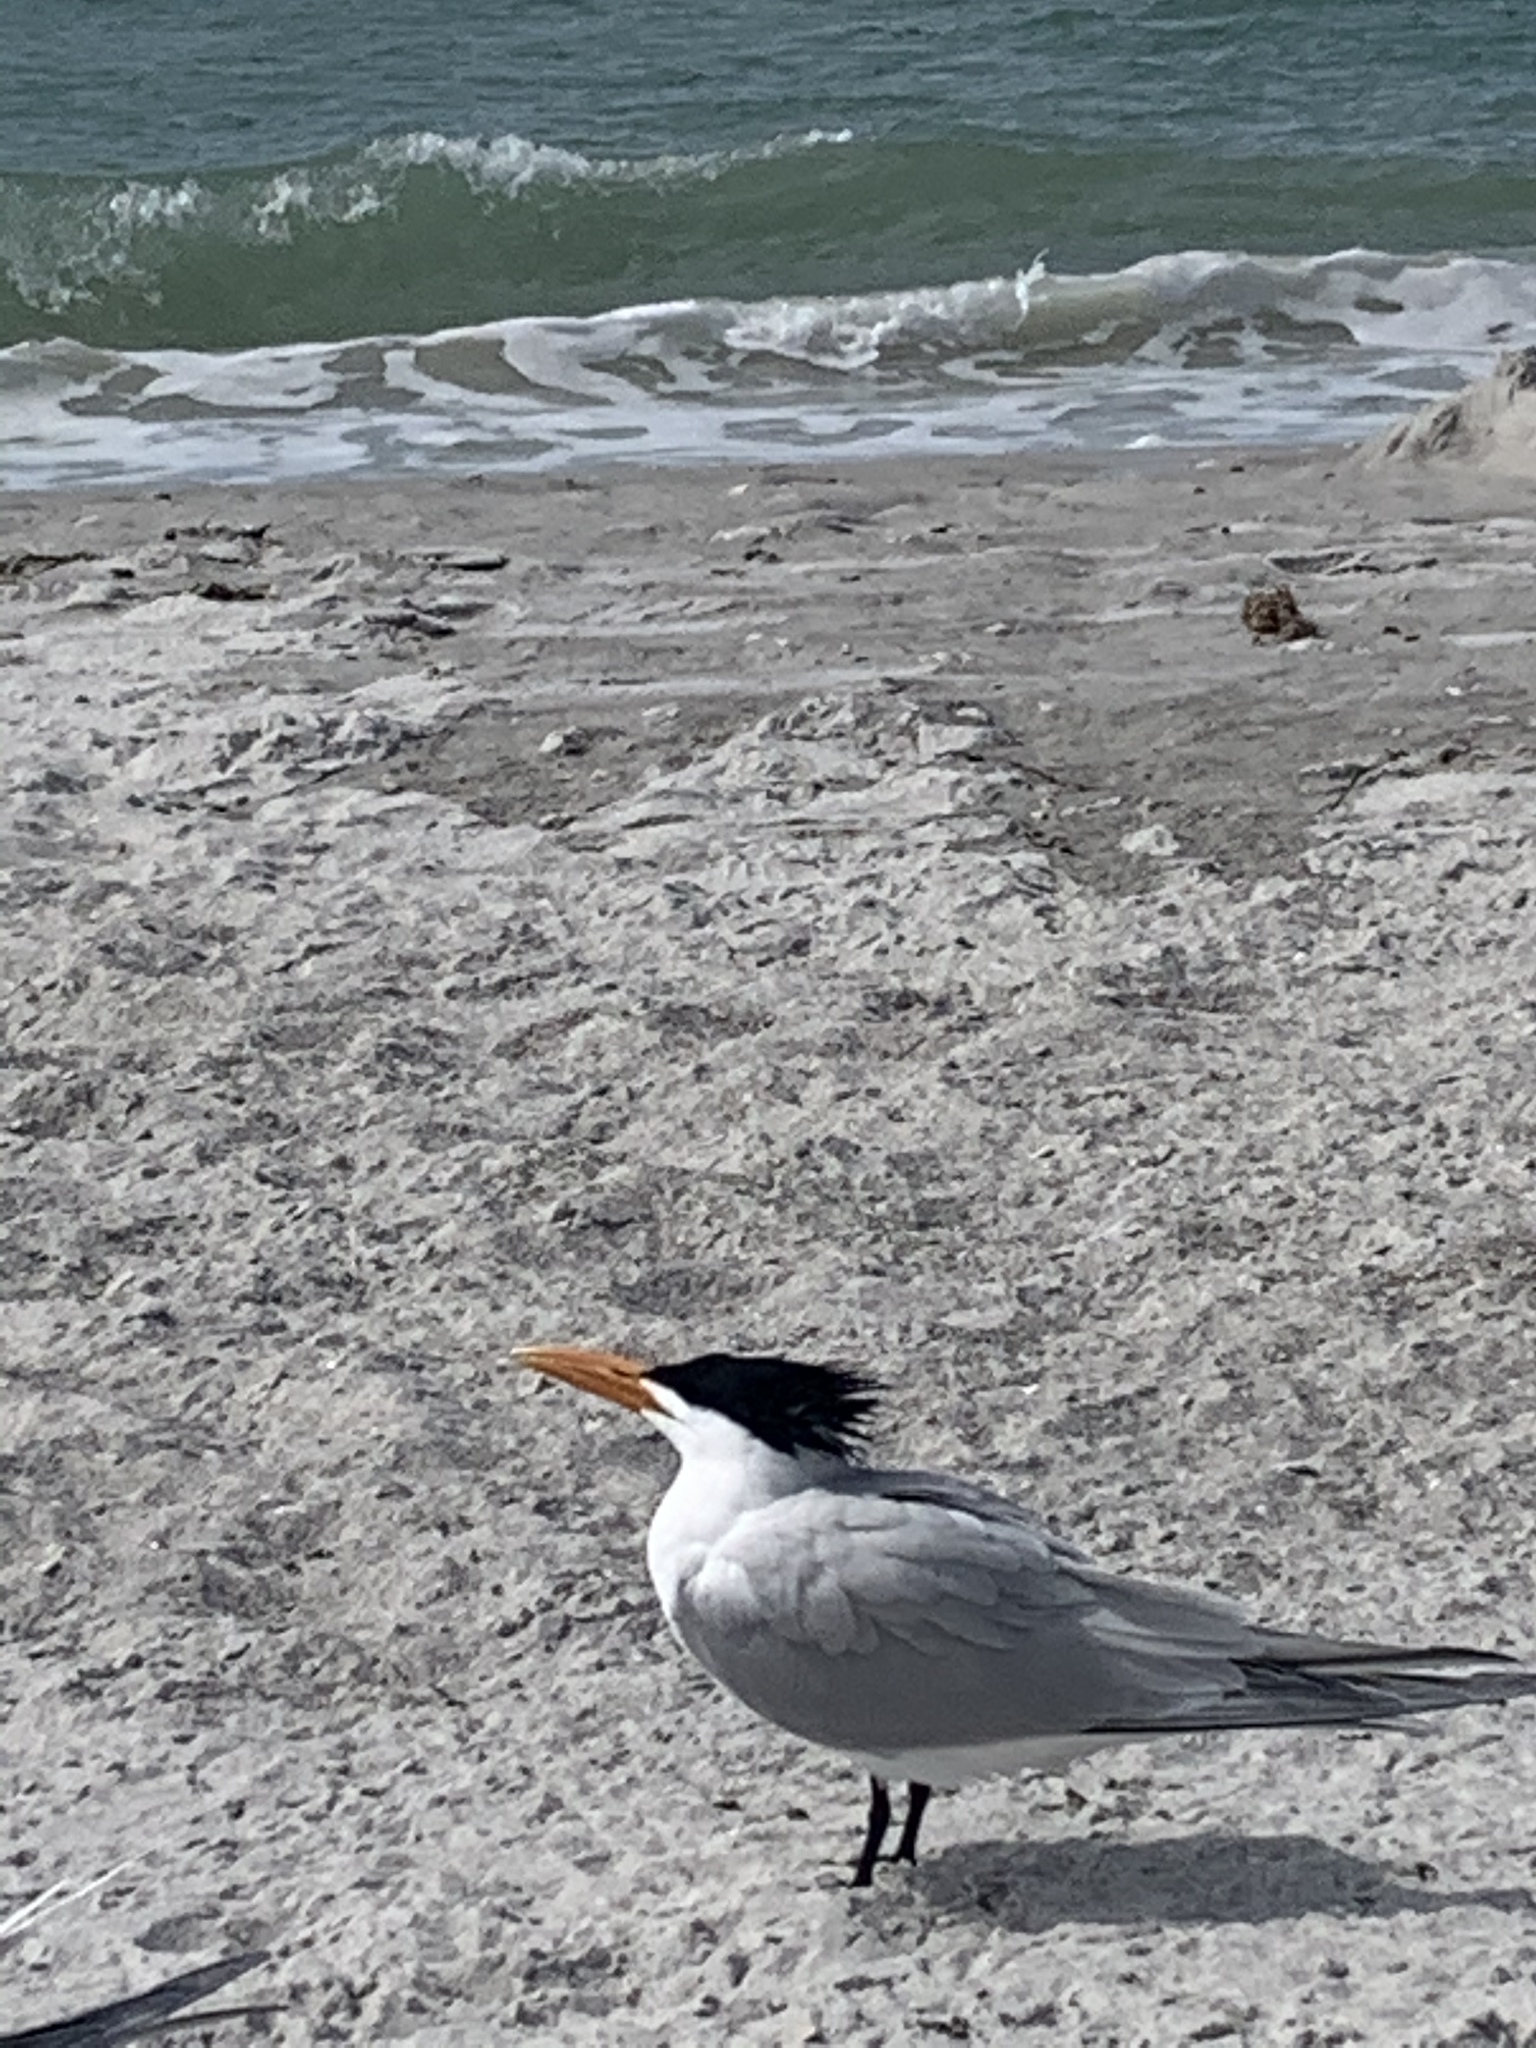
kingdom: Animalia
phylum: Chordata
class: Aves
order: Charadriiformes
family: Laridae
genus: Thalasseus
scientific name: Thalasseus maximus
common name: Royal tern
